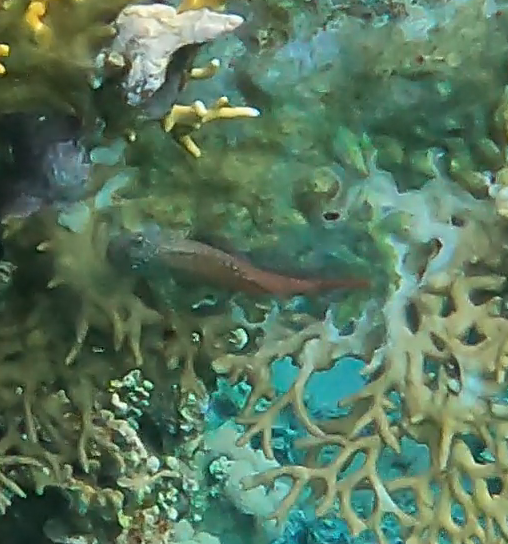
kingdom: Animalia
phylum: Chordata
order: Perciformes
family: Blenniidae
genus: Exallias
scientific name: Exallias brevis
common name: Leopard blenny
